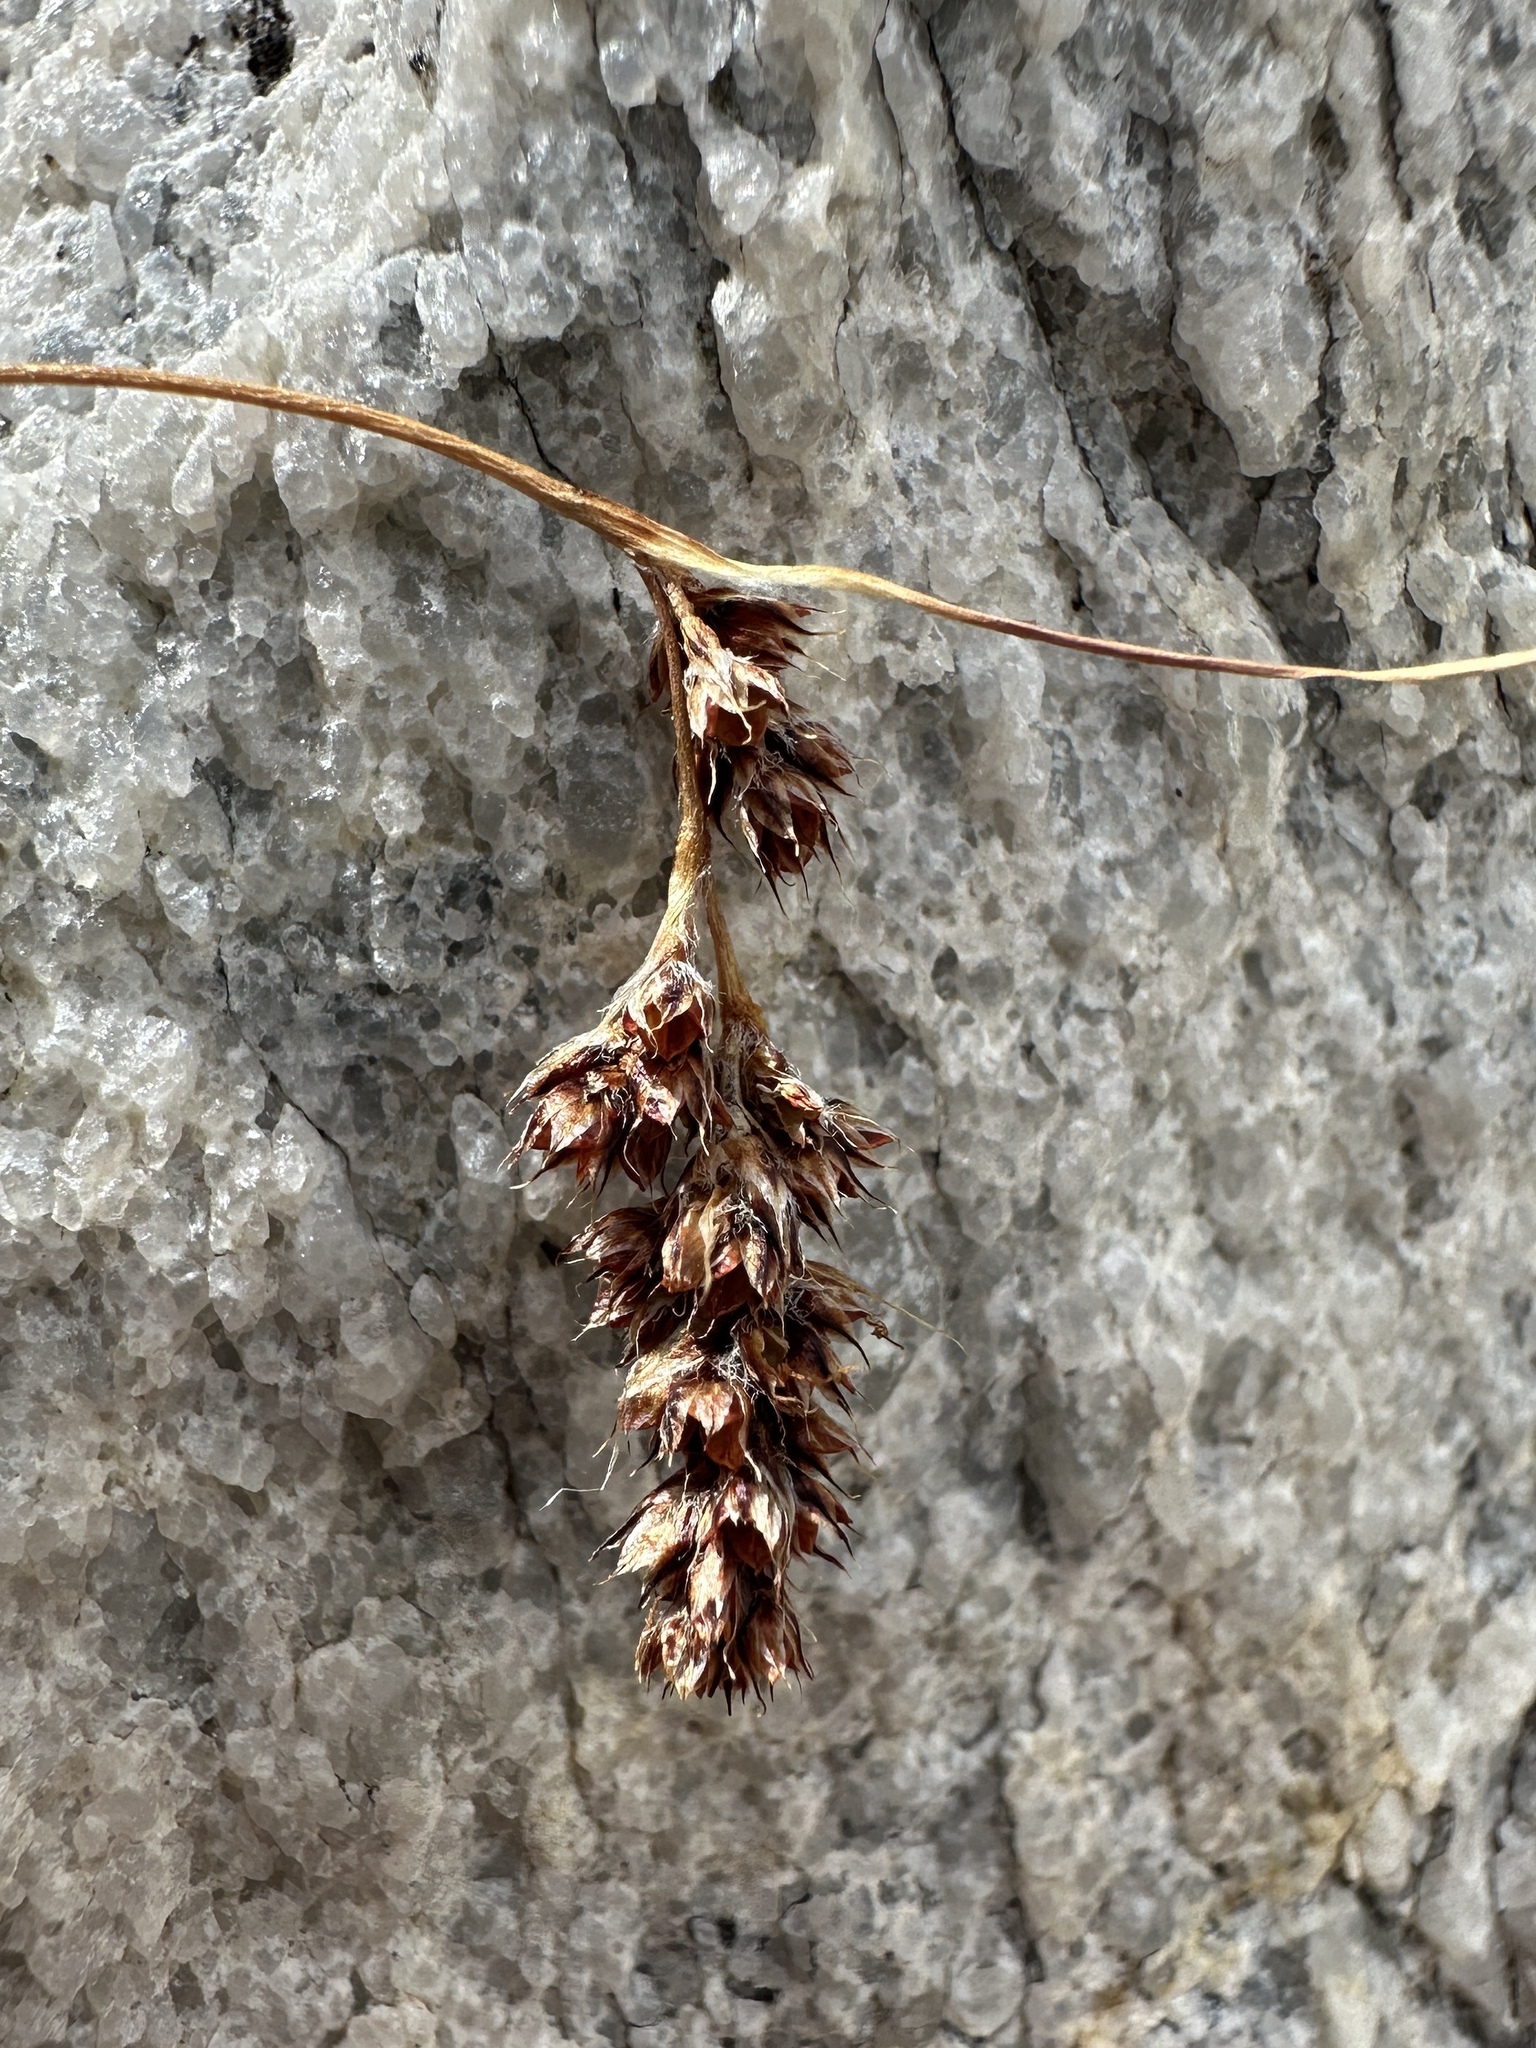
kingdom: Plantae
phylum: Tracheophyta
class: Liliopsida
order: Poales
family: Juncaceae
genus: Luzula
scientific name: Luzula spicata
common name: Spiked wood-rush
